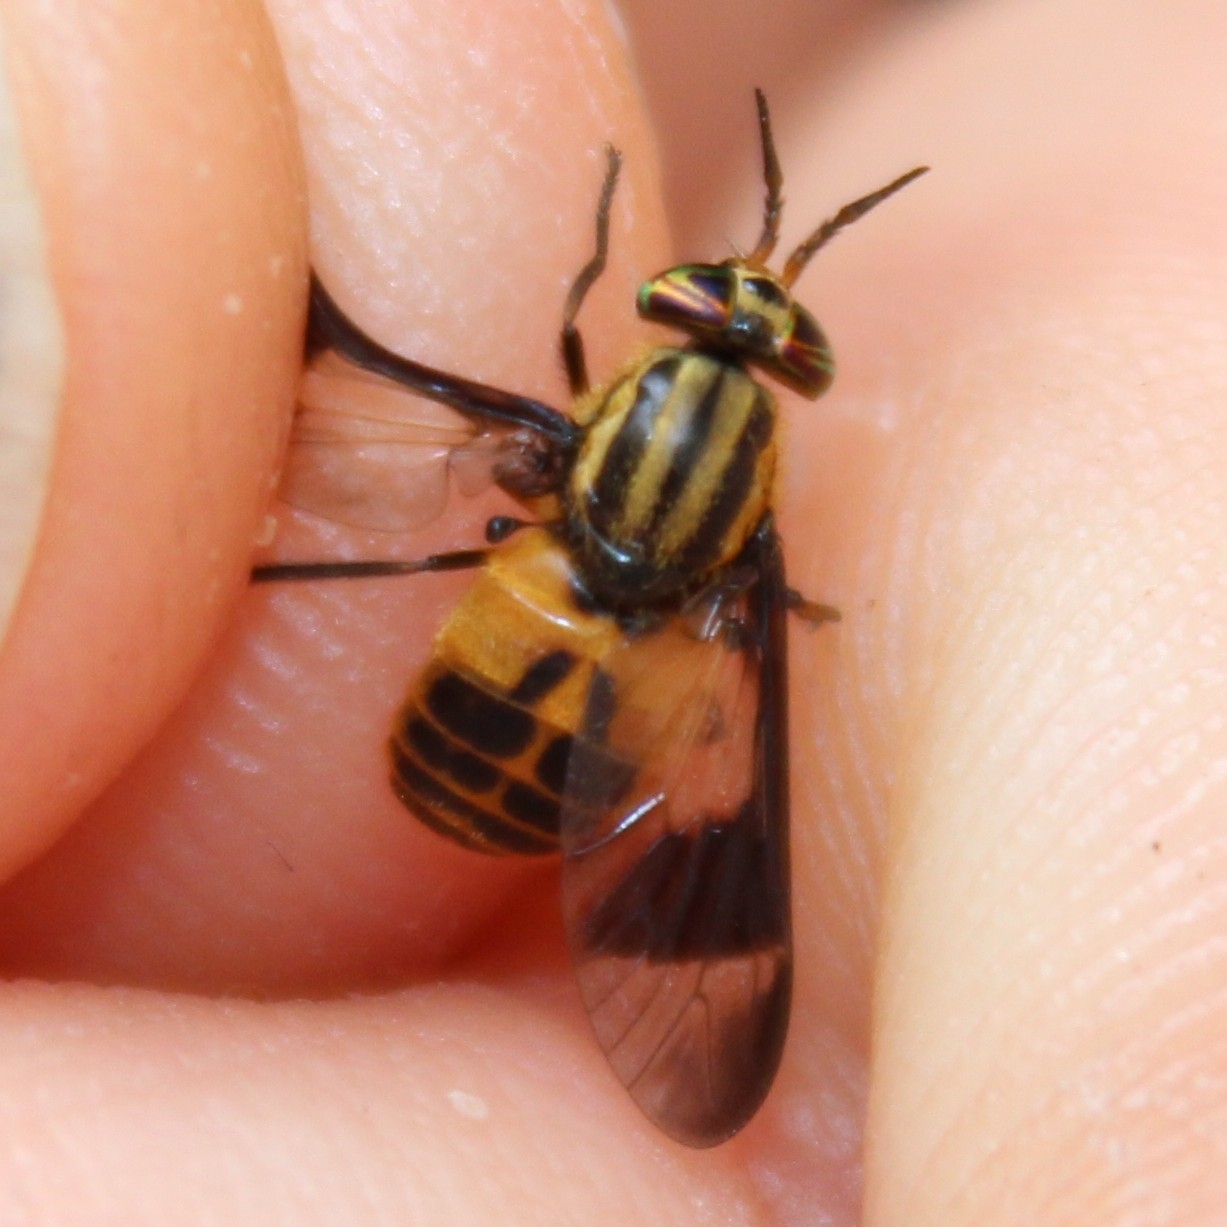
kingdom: Animalia
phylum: Arthropoda
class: Insecta
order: Diptera
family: Tabanidae
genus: Chrysops
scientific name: Chrysops geminatus
